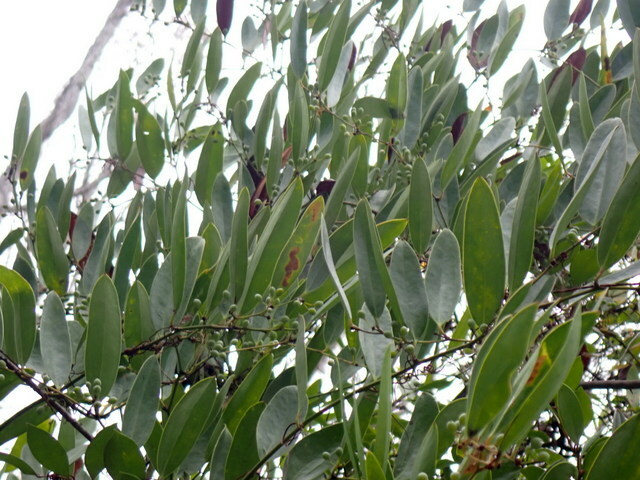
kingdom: Plantae
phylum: Tracheophyta
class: Liliopsida
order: Liliales
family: Smilacaceae
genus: Smilax
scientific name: Smilax laurifolia
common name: Bamboovine
